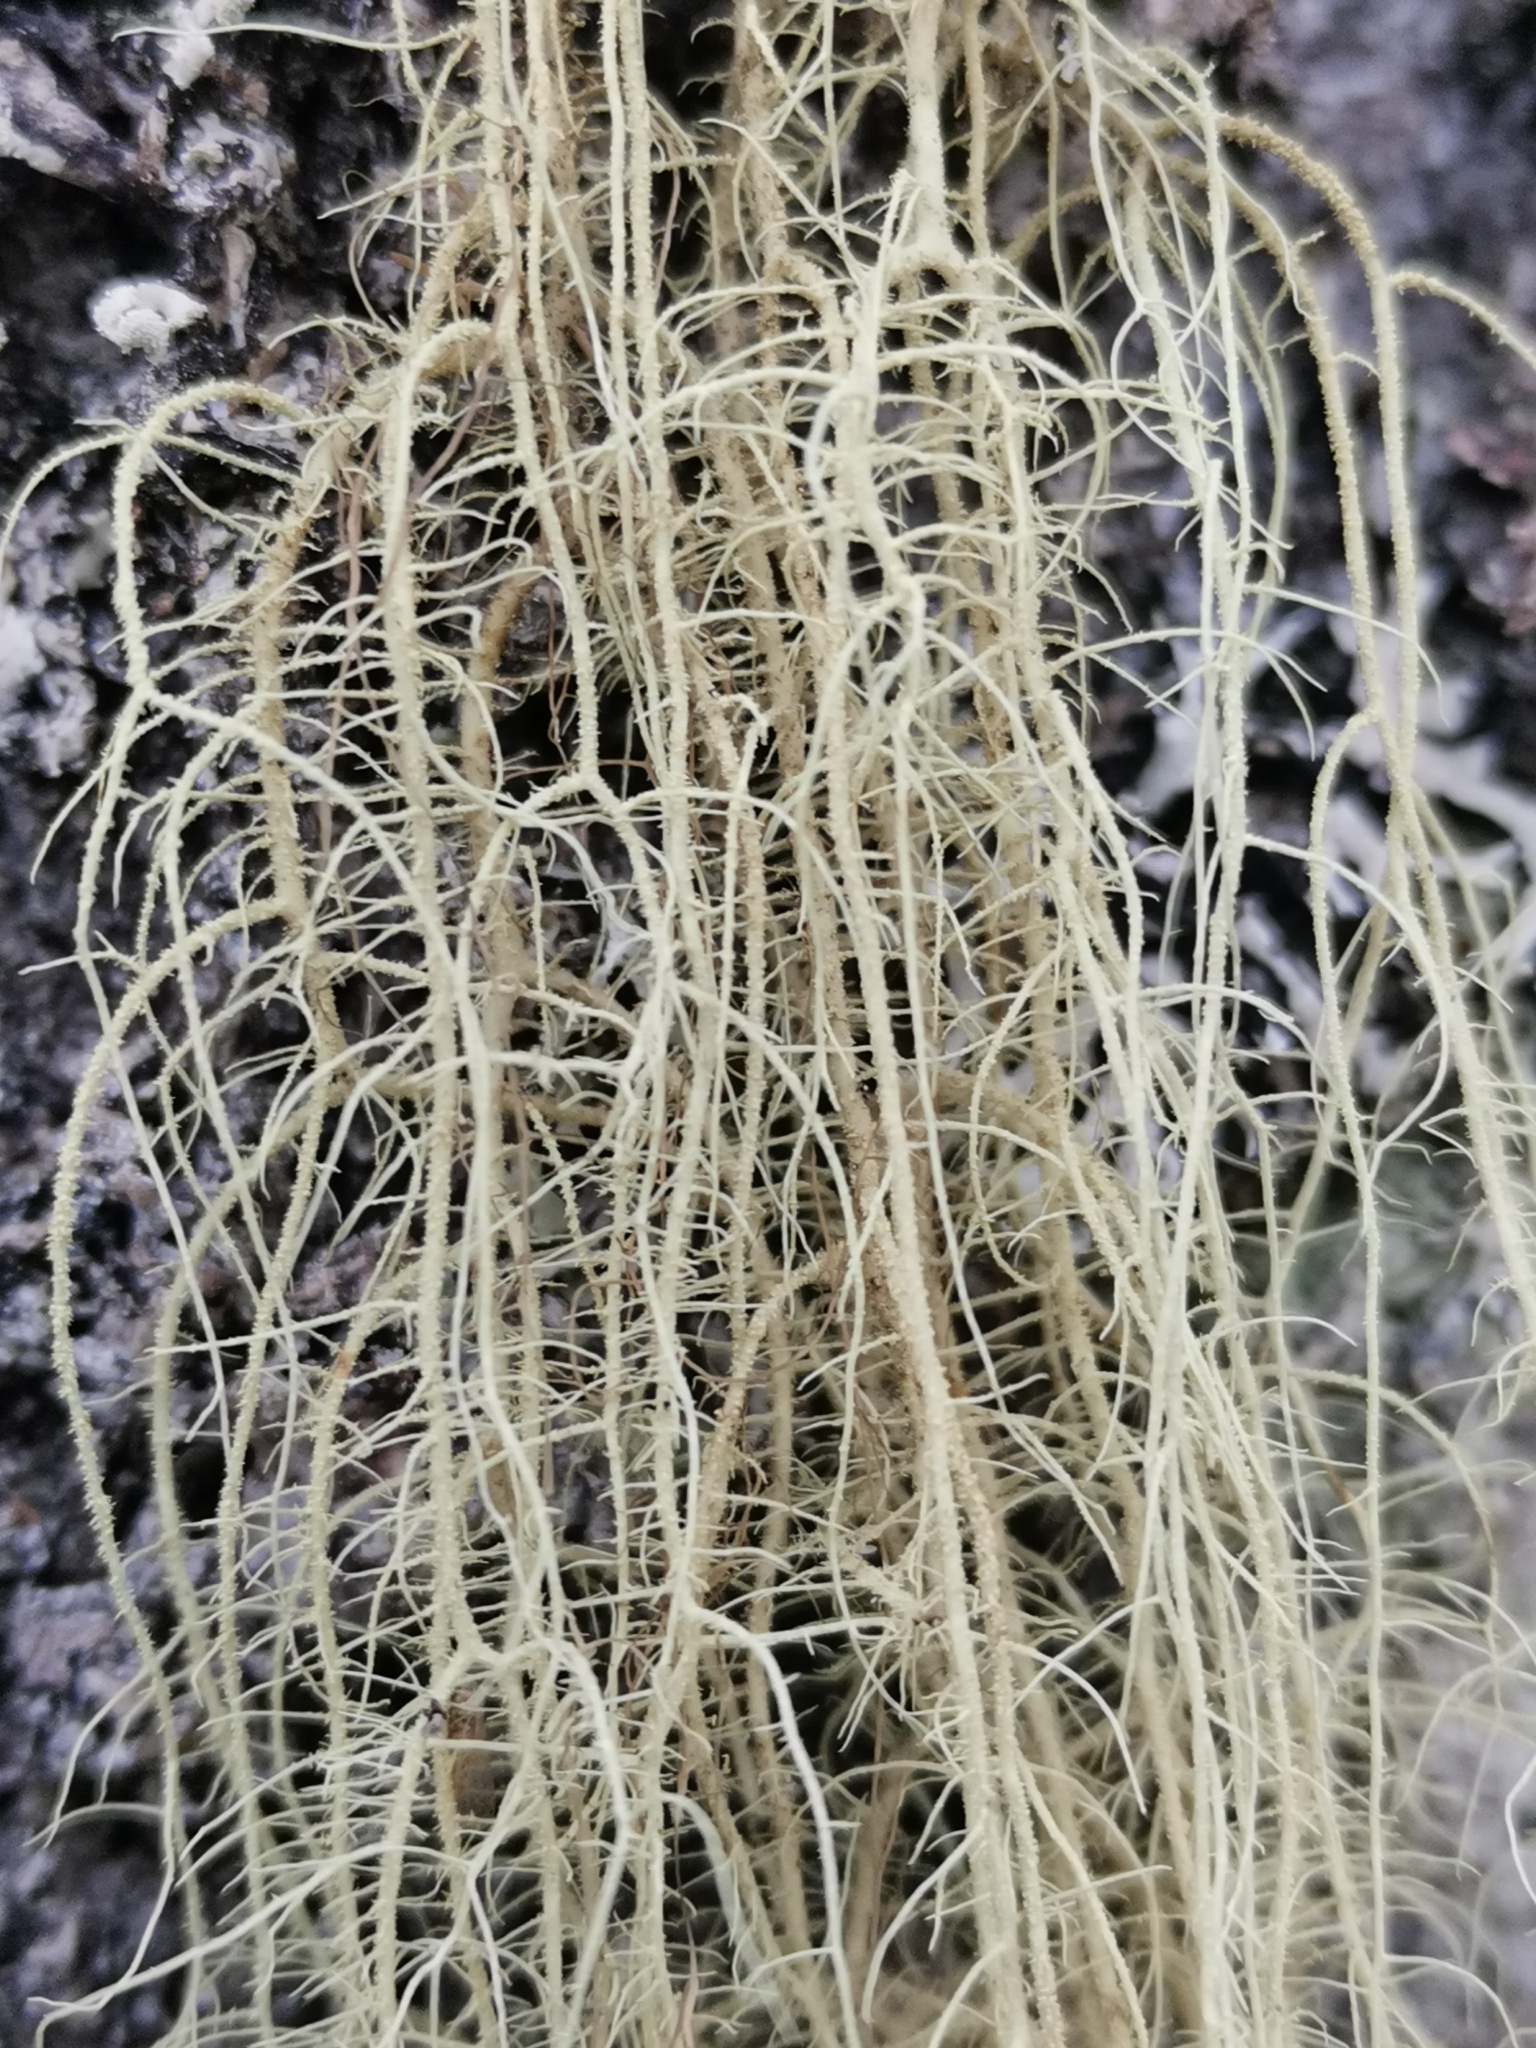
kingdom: Fungi
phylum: Ascomycota
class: Lecanoromycetes
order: Lecanorales
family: Parmeliaceae
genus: Usnea
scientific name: Usnea dasopoga
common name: Fishbone beard lichen
